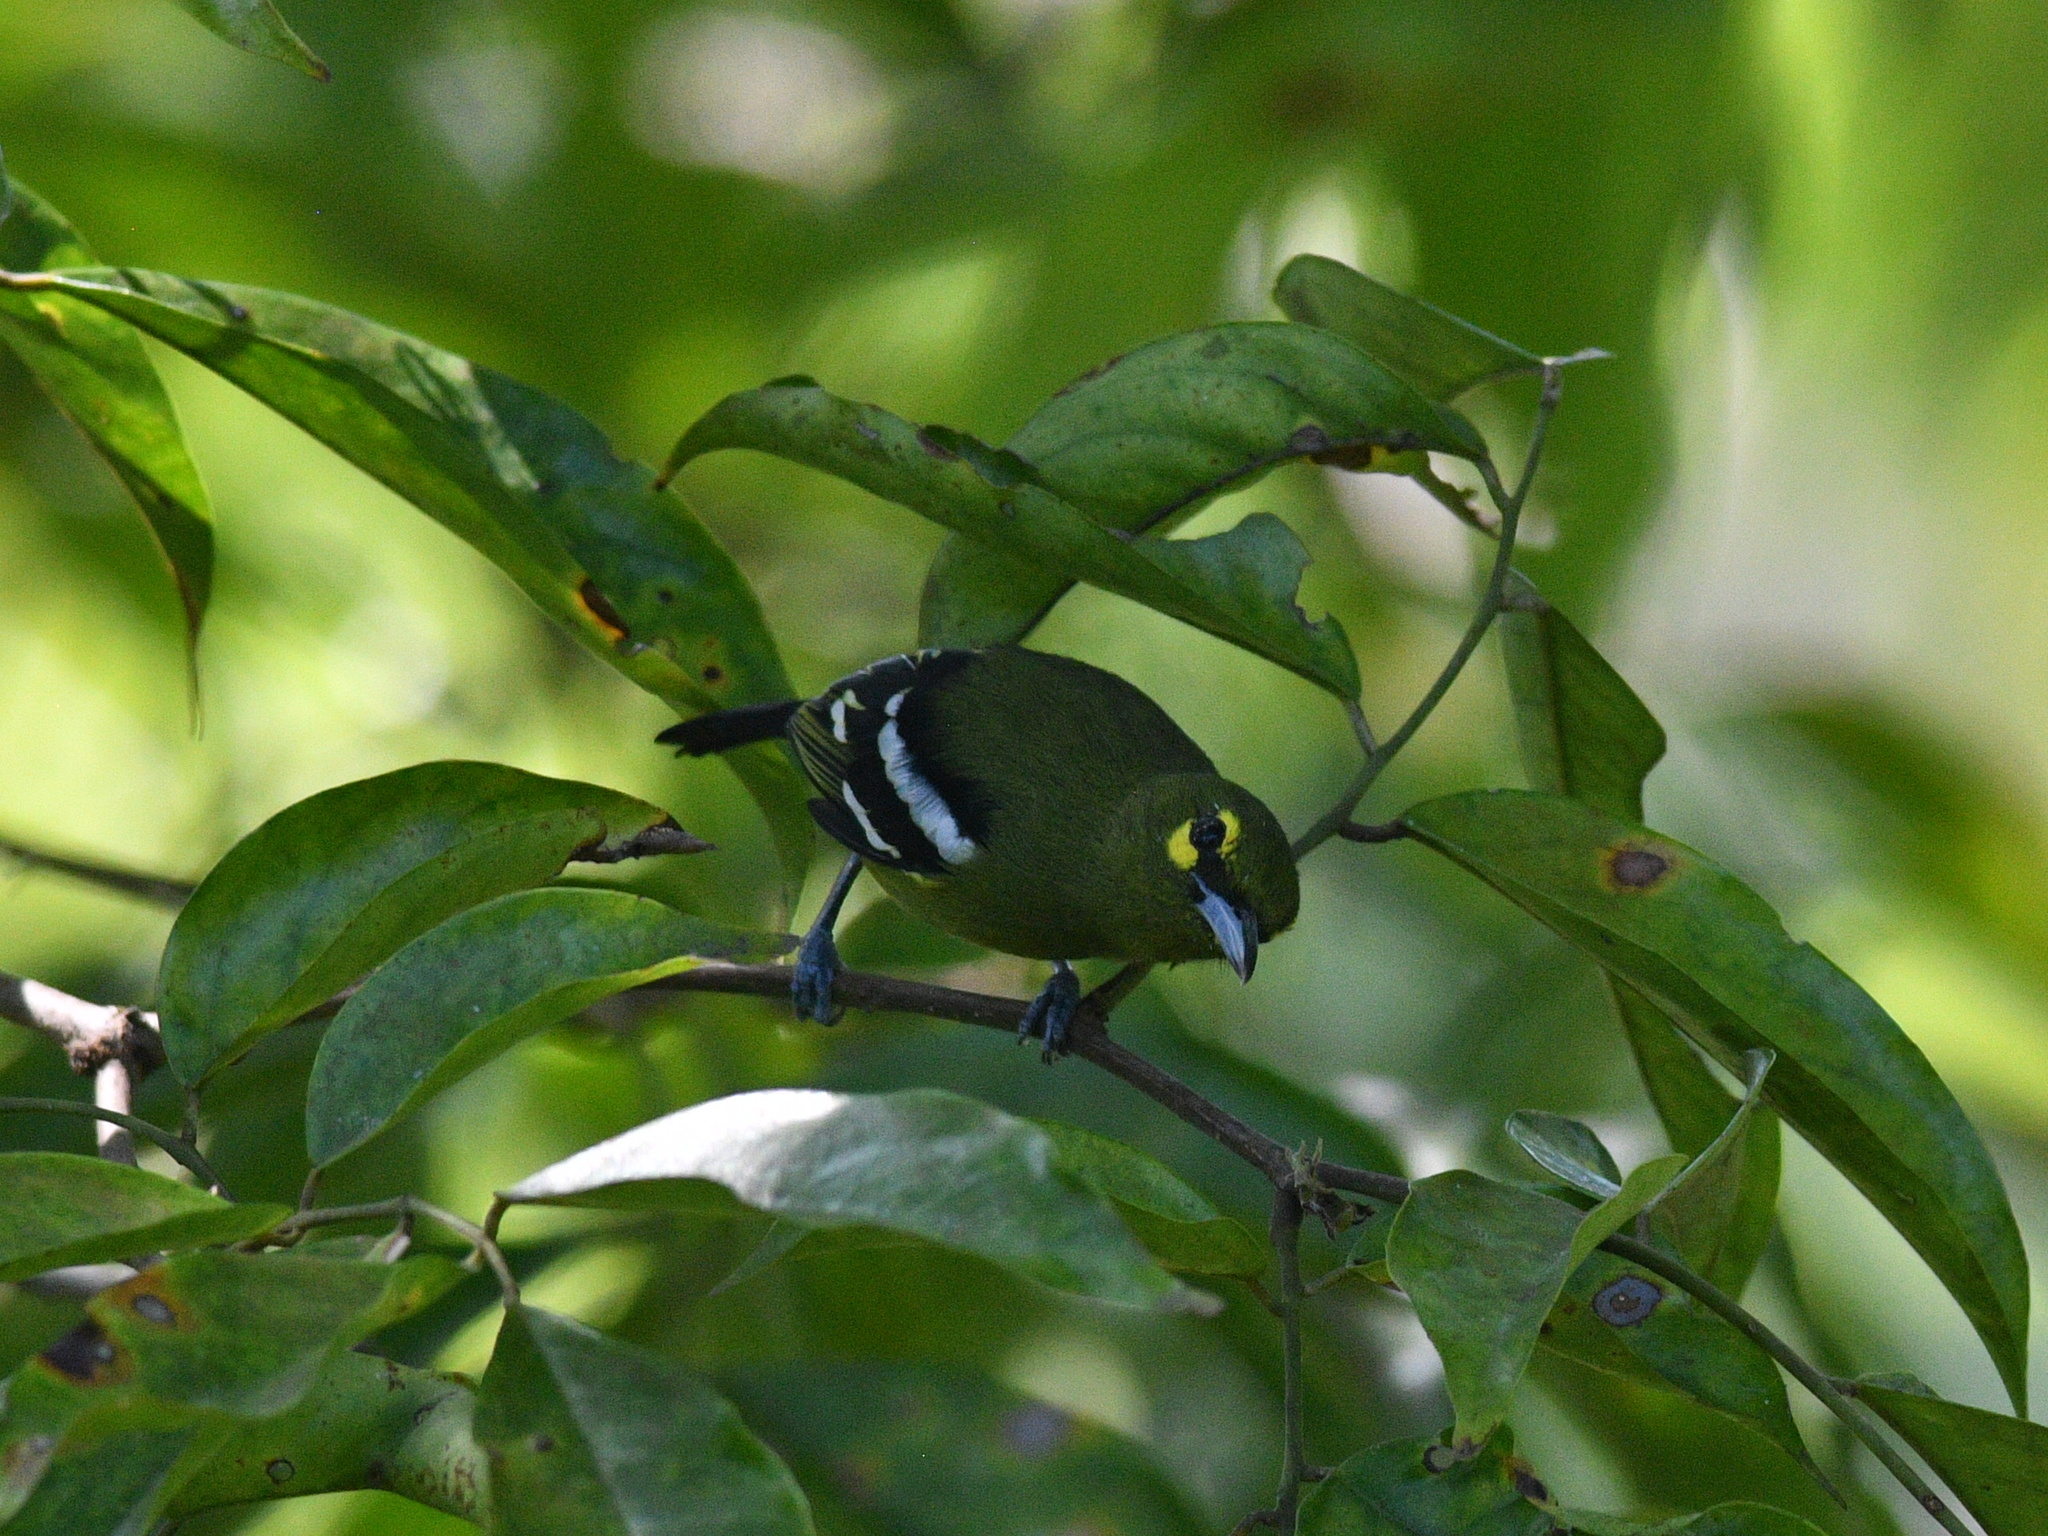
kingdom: Animalia
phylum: Chordata
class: Aves
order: Passeriformes
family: Aegithinidae
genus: Aegithina
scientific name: Aegithina viridissima
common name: Green iora
